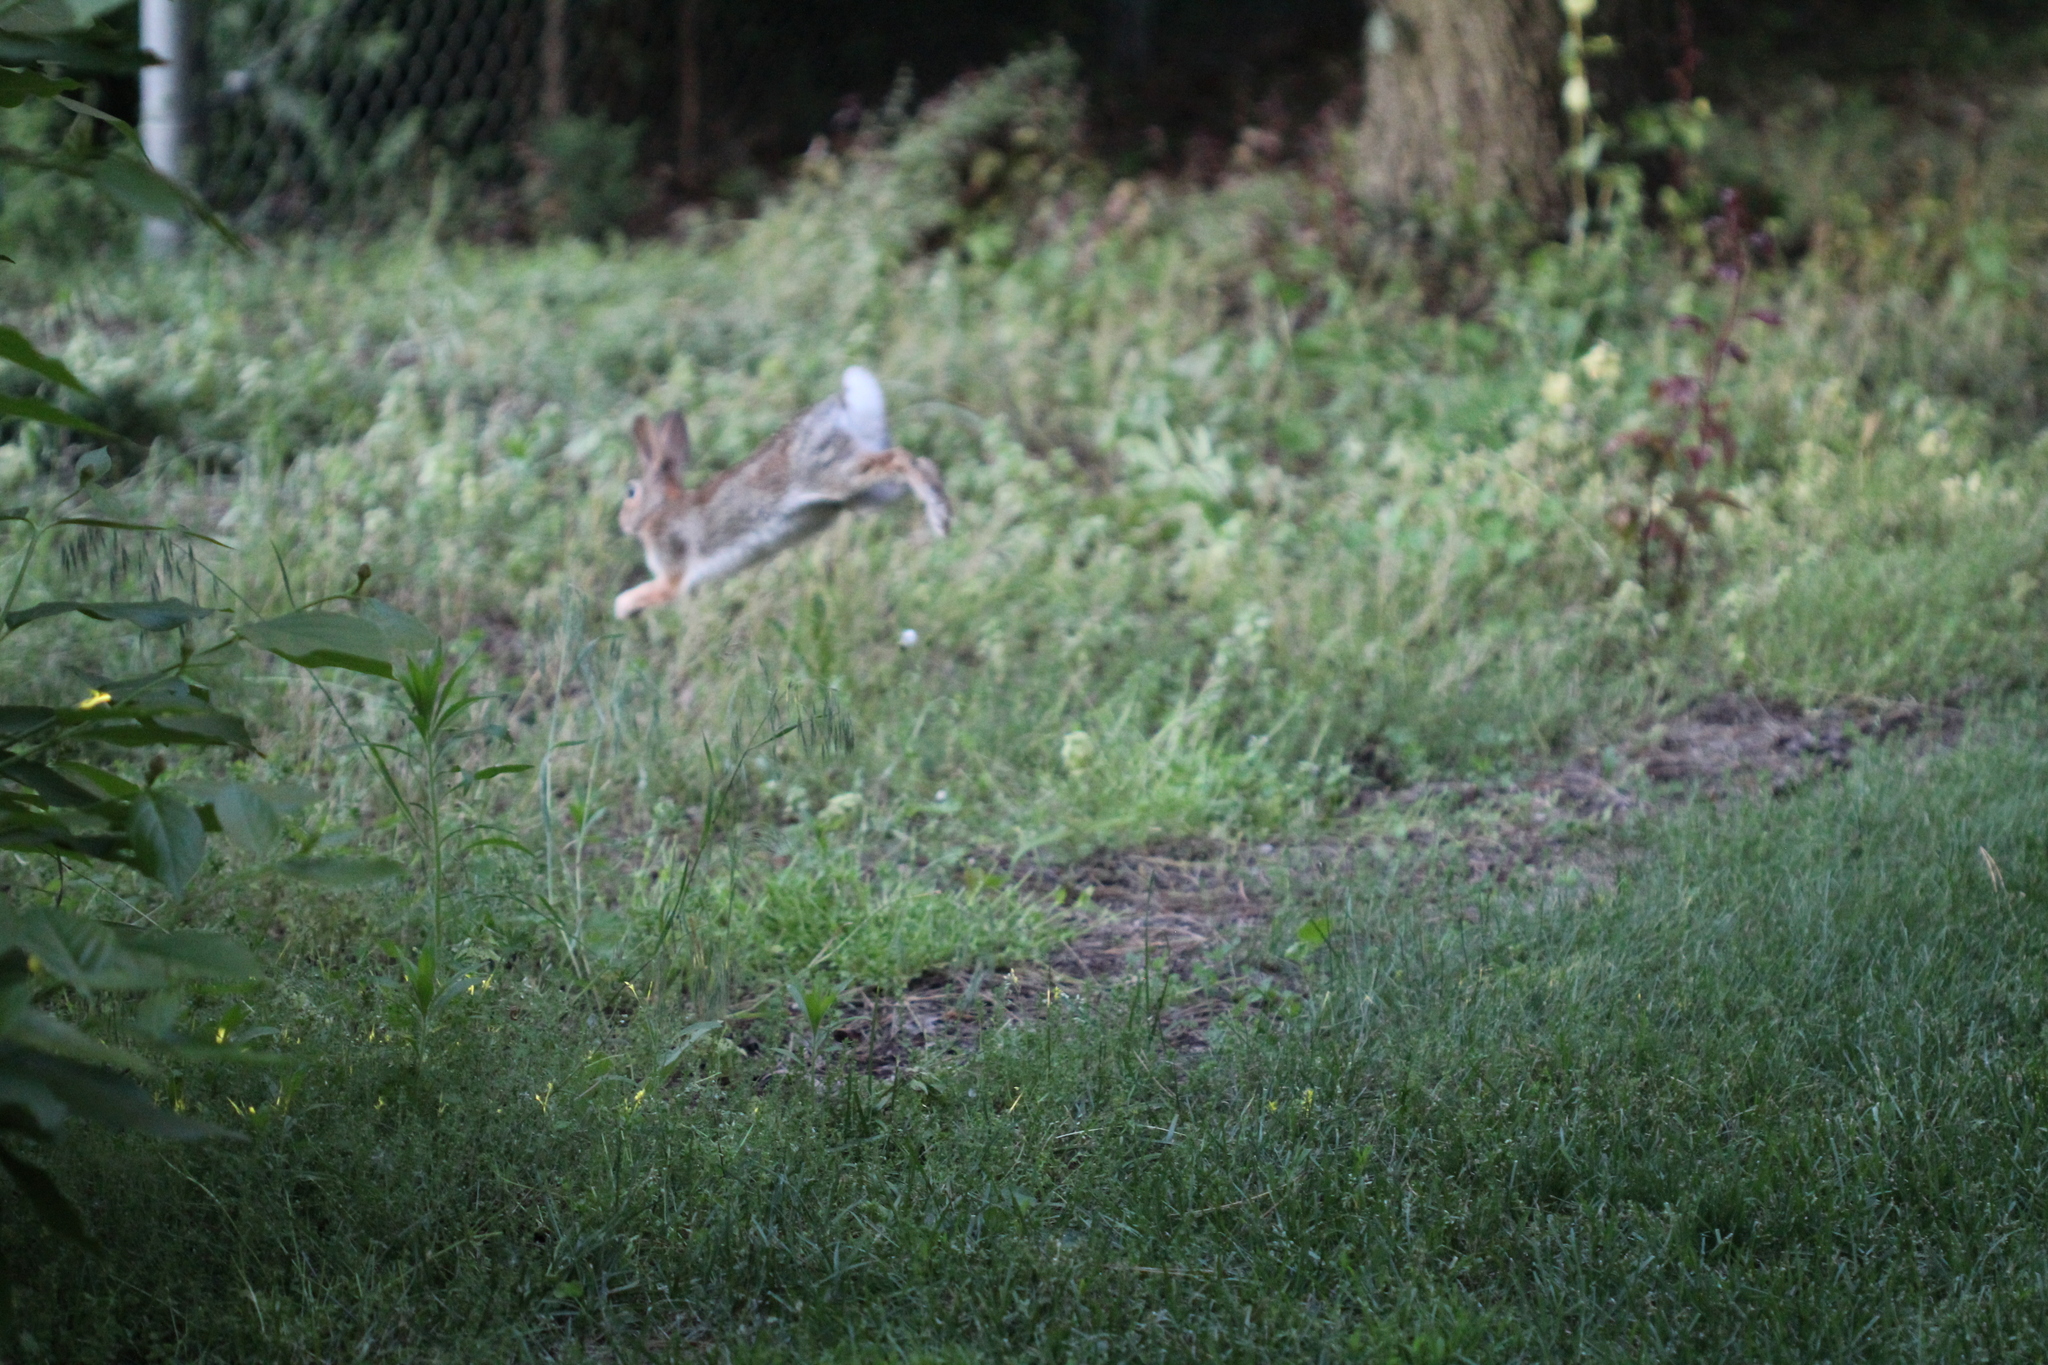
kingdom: Animalia
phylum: Chordata
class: Mammalia
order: Lagomorpha
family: Leporidae
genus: Sylvilagus
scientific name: Sylvilagus floridanus
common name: Eastern cottontail
